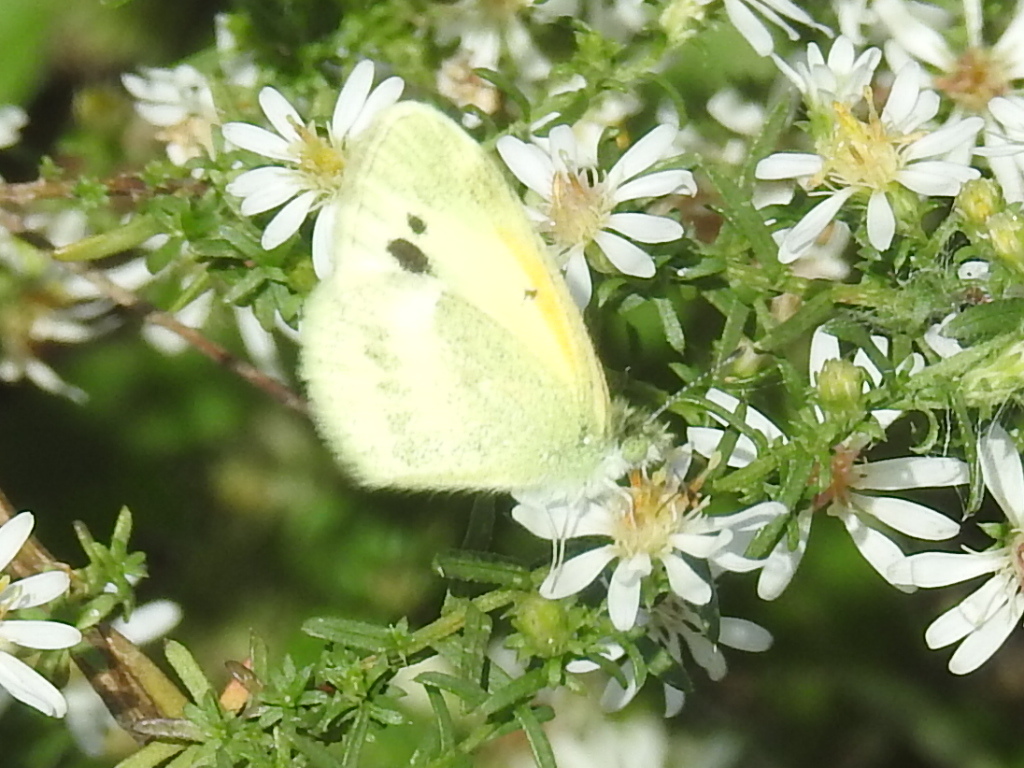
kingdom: Animalia
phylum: Arthropoda
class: Insecta
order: Lepidoptera
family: Pieridae
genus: Nathalis
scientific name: Nathalis iole
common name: Dainty sulphur
